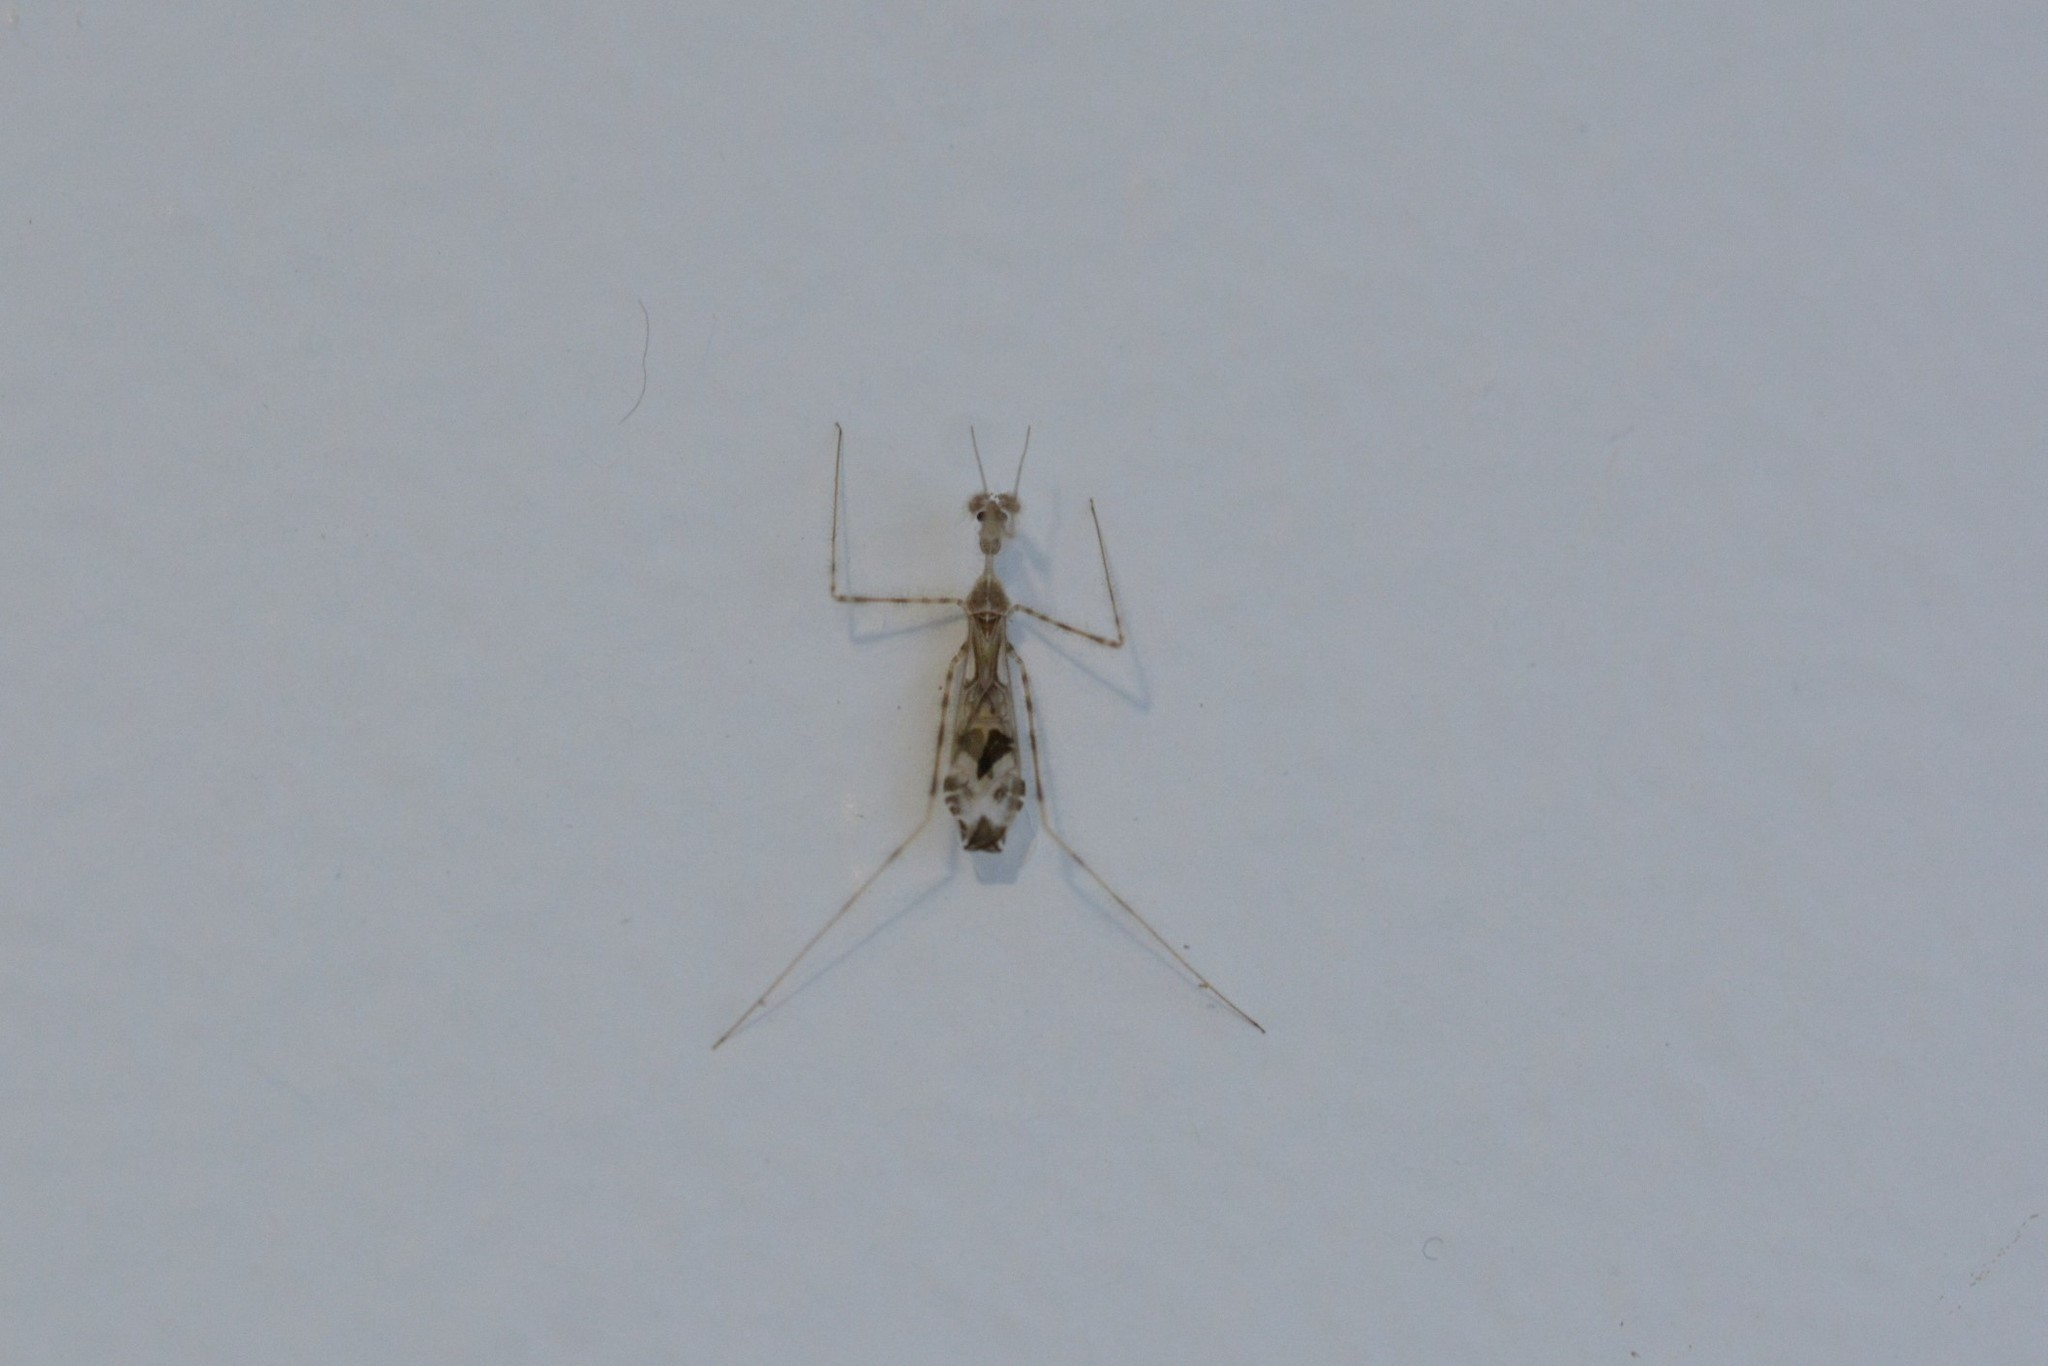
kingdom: Animalia
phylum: Arthropoda
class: Insecta
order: Hemiptera
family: Reduviidae
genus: Stenolemus
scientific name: Stenolemus fraterculus
